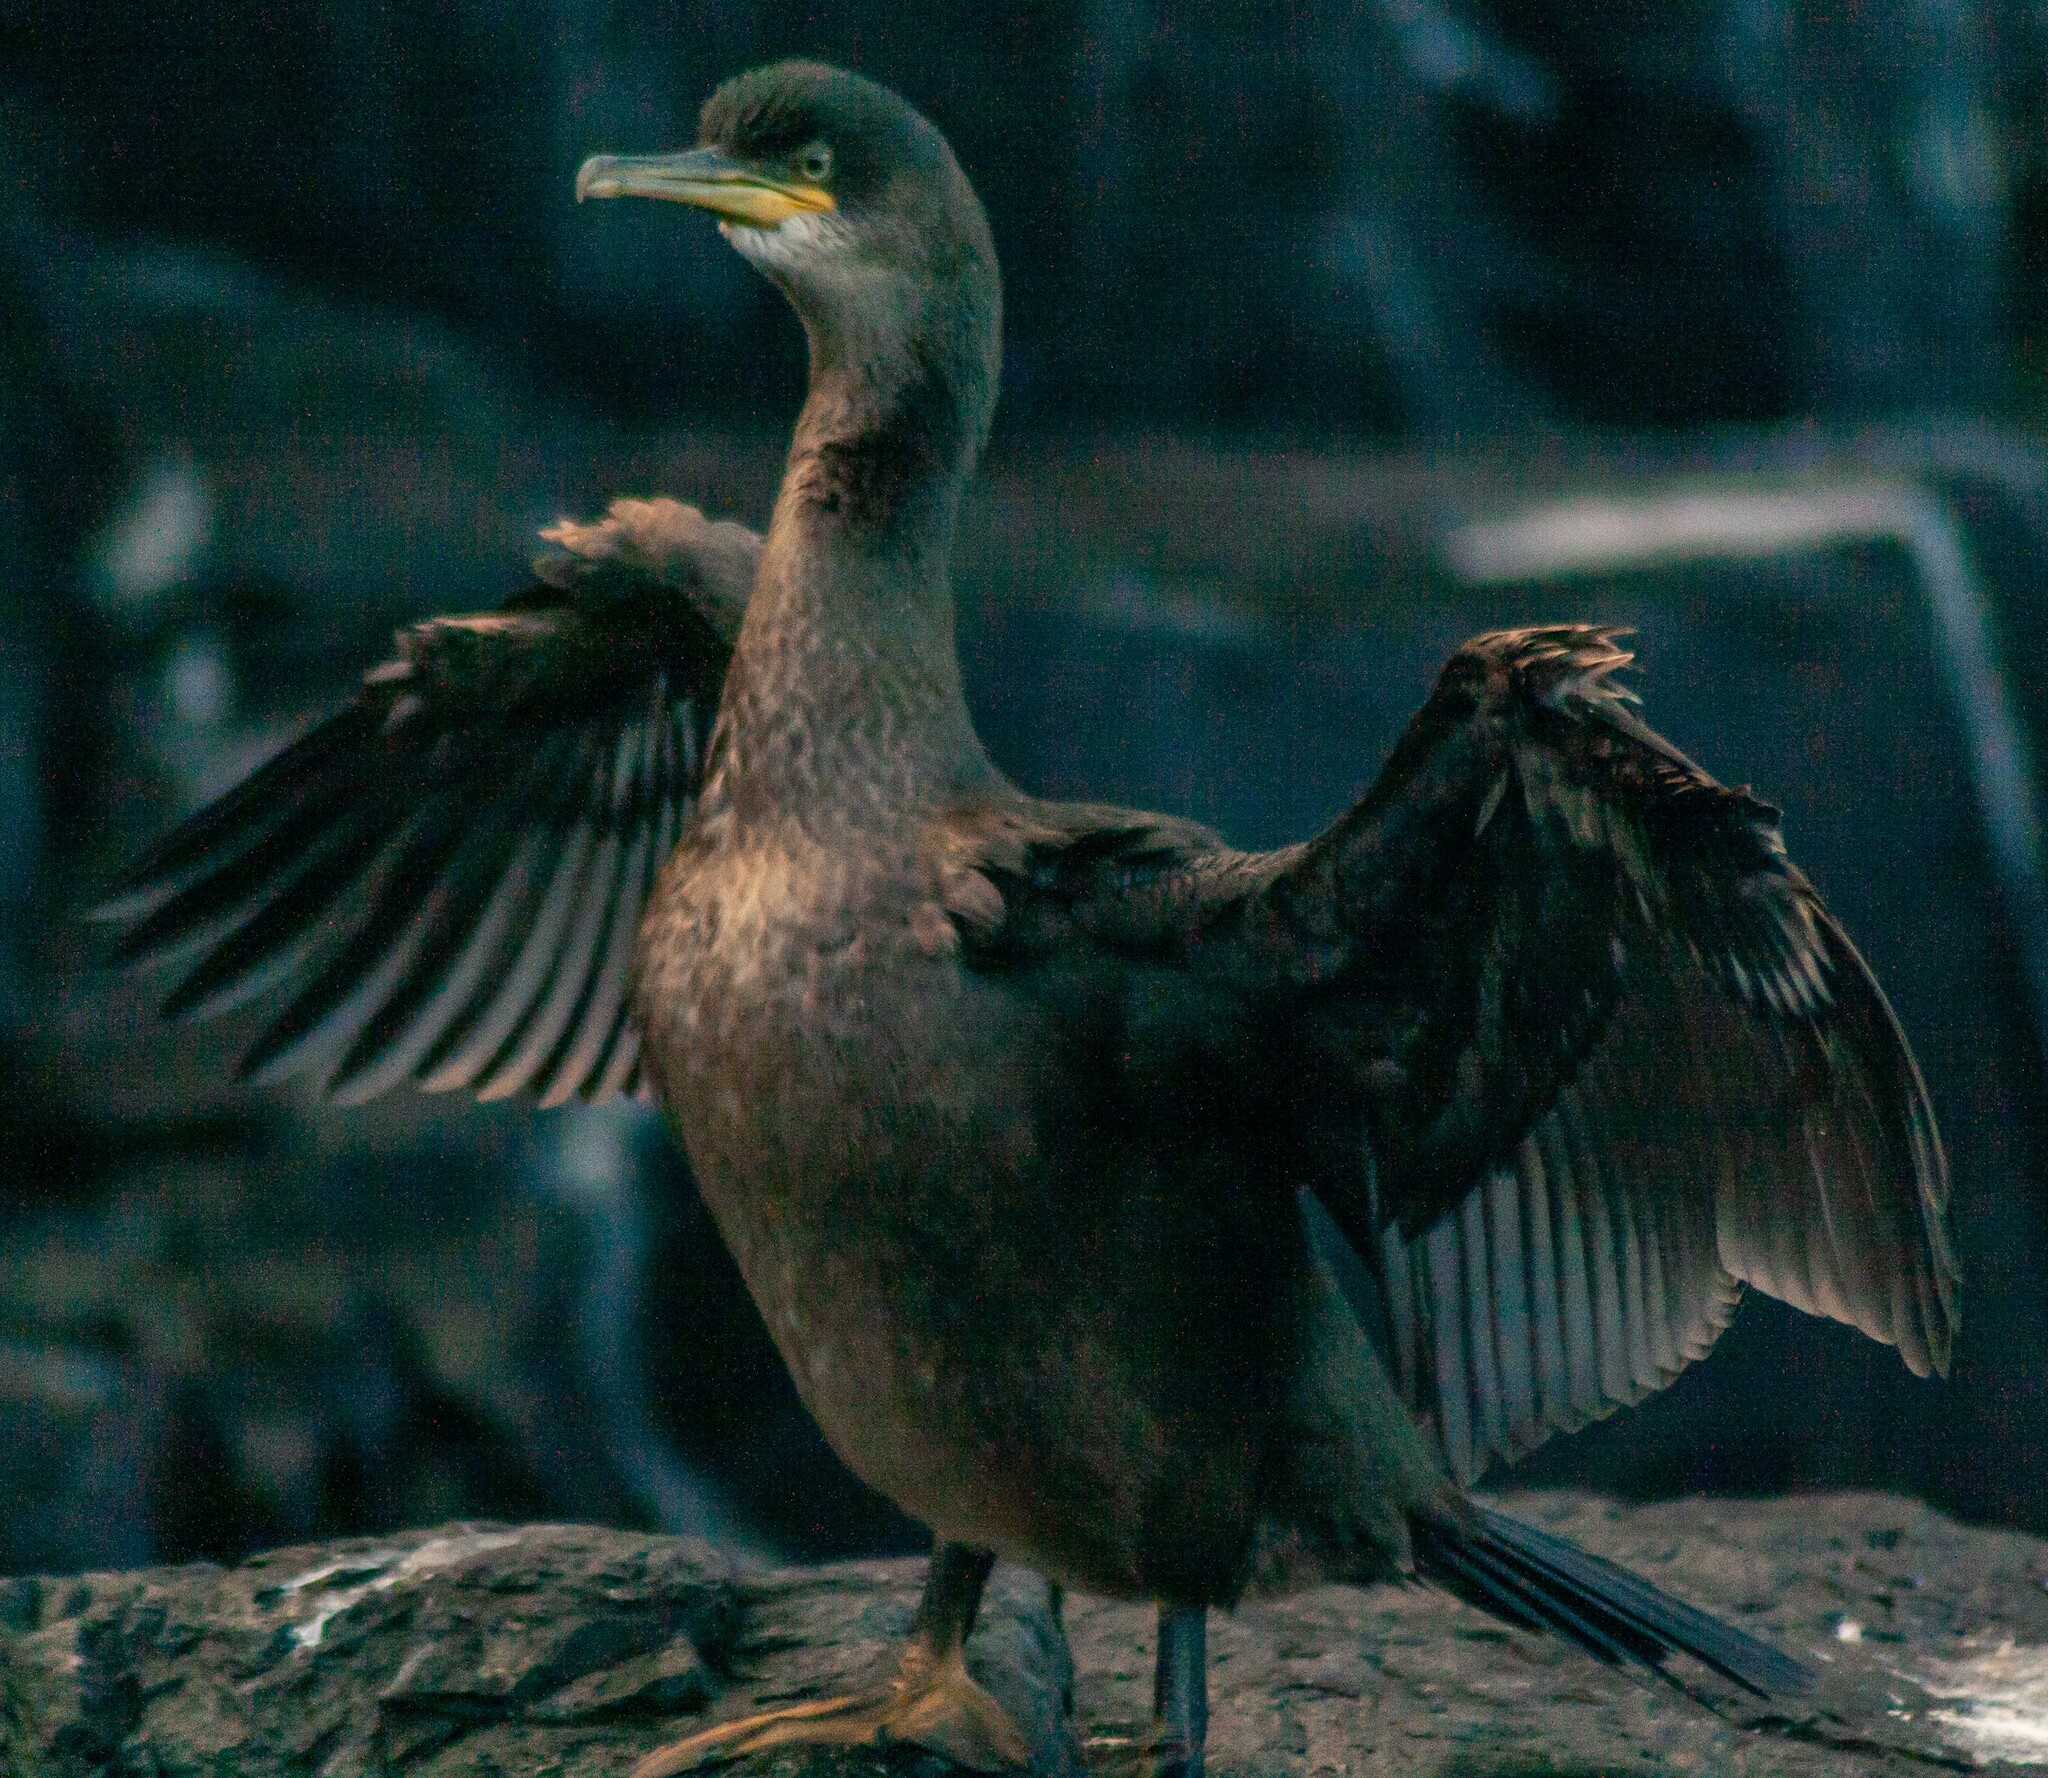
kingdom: Animalia
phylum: Chordata
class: Aves
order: Suliformes
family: Phalacrocoracidae
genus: Phalacrocorax
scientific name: Phalacrocorax aristotelis
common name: European shag
